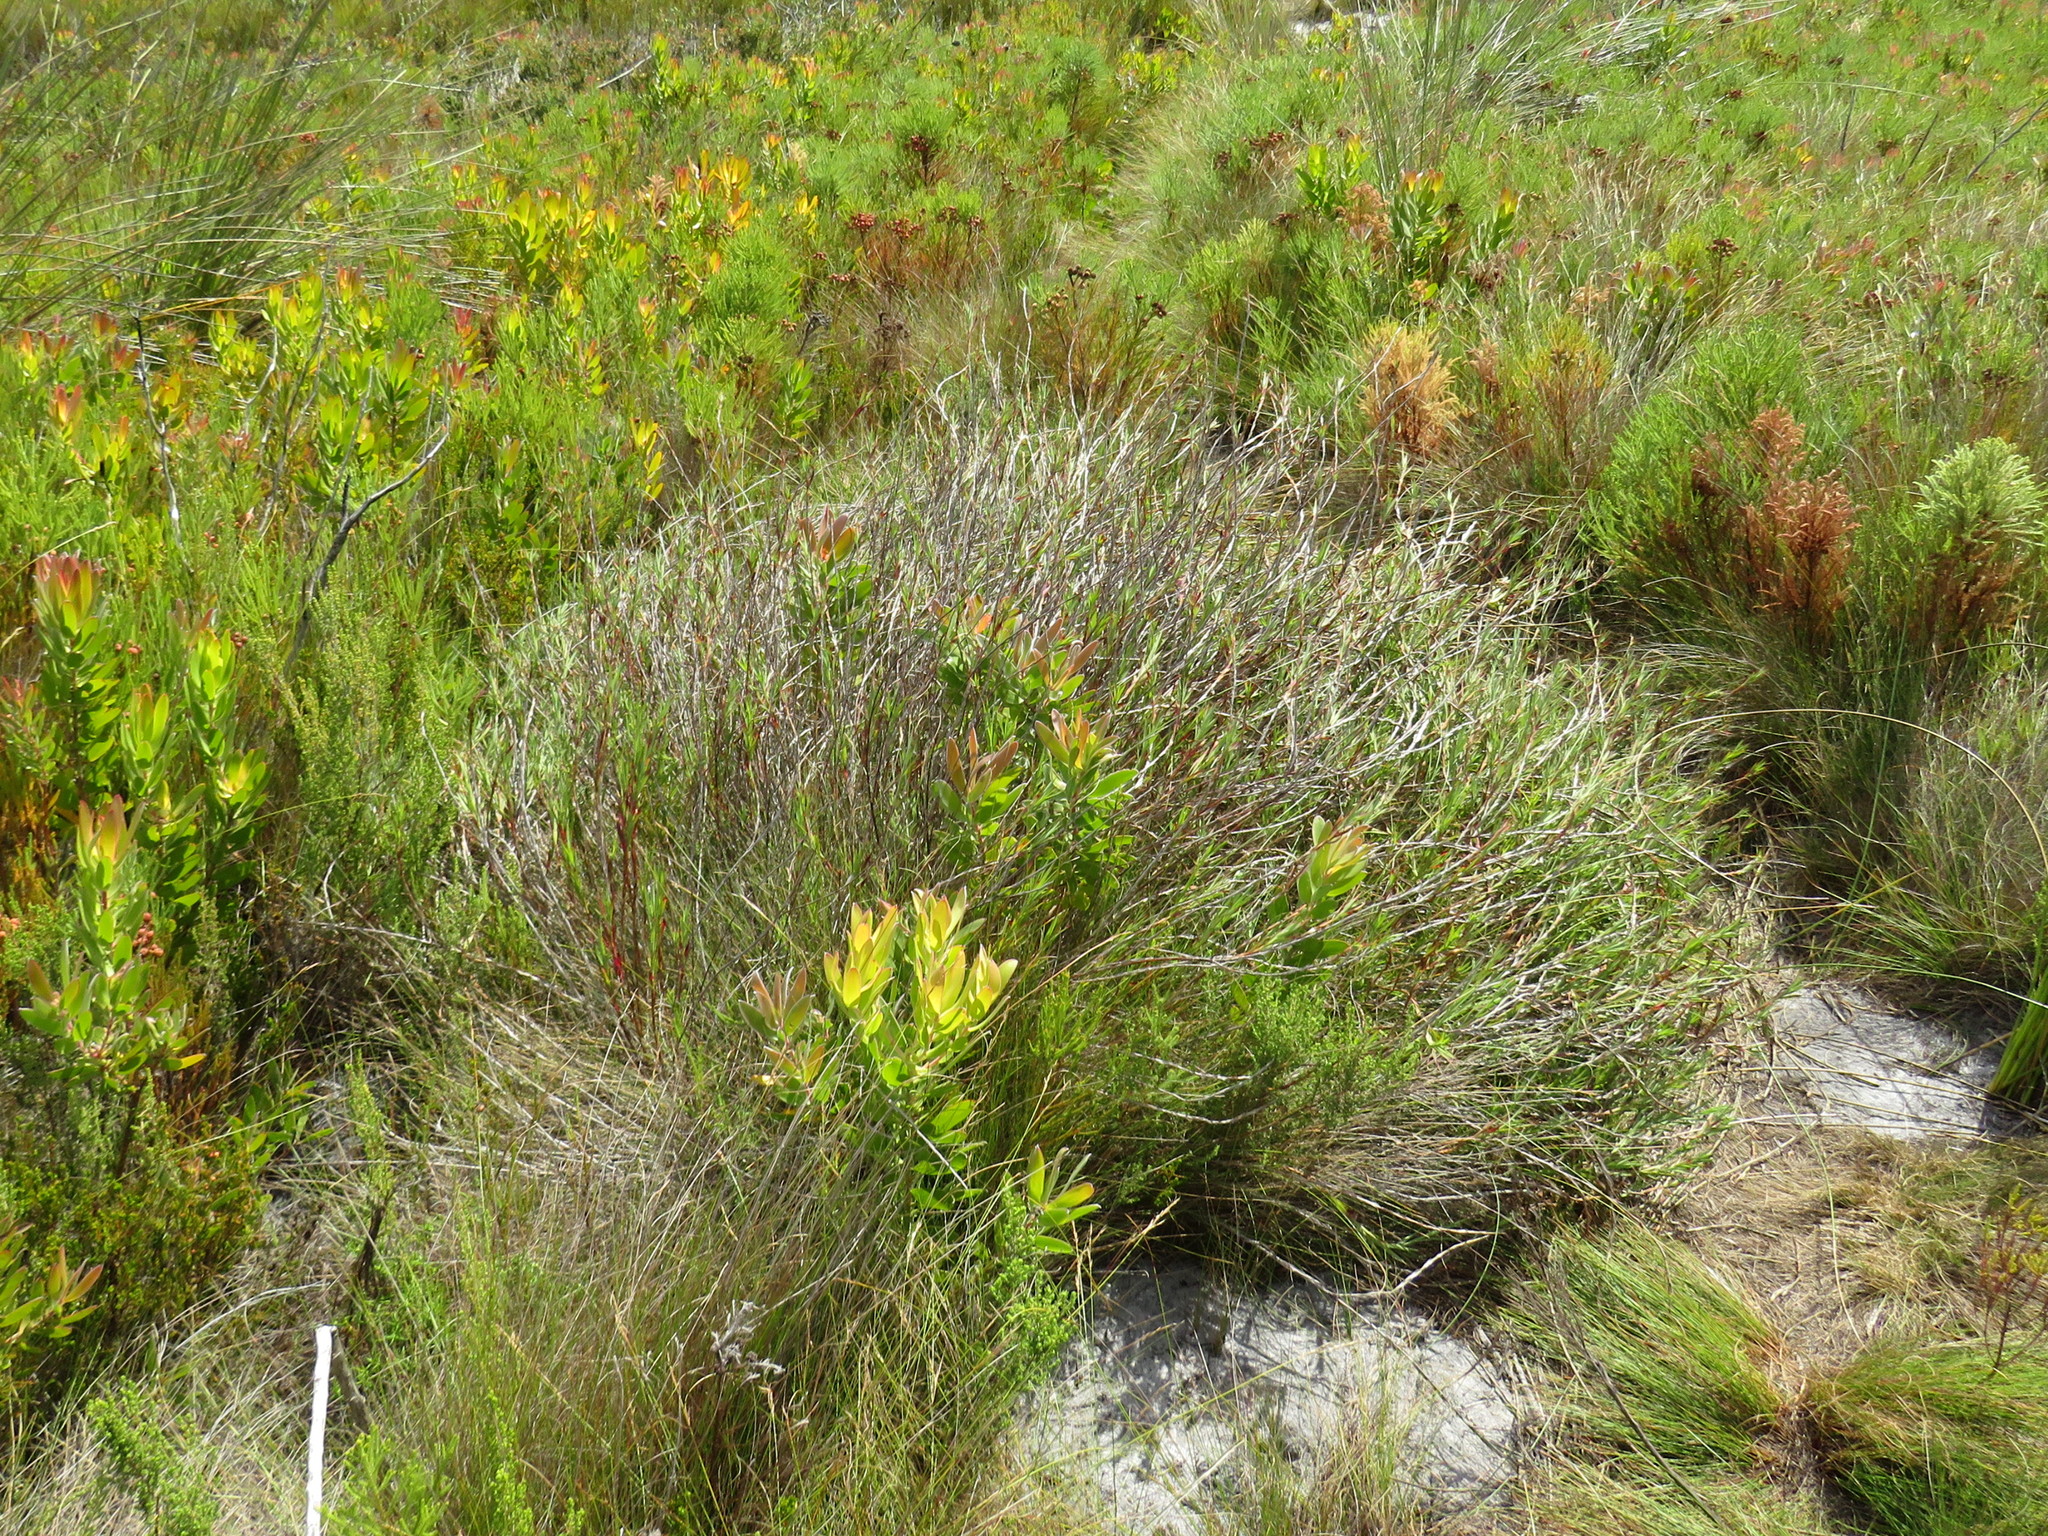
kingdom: Plantae
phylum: Tracheophyta
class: Magnoliopsida
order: Rosales
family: Rosaceae
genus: Cliffortia
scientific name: Cliffortia graminea
